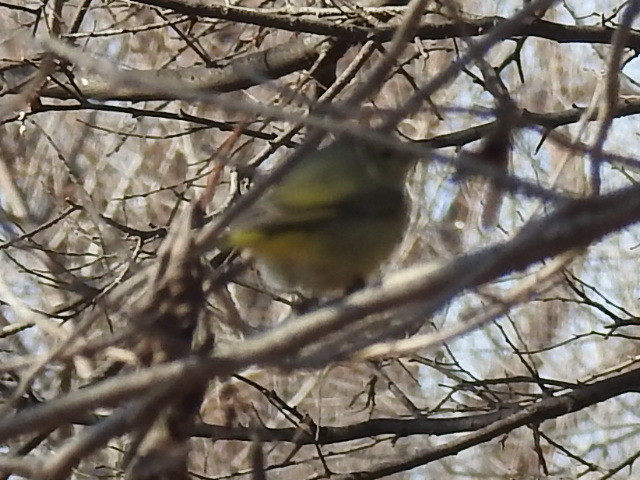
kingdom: Animalia
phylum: Chordata
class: Aves
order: Passeriformes
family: Parulidae
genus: Leiothlypis
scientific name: Leiothlypis celata
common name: Orange-crowned warbler
